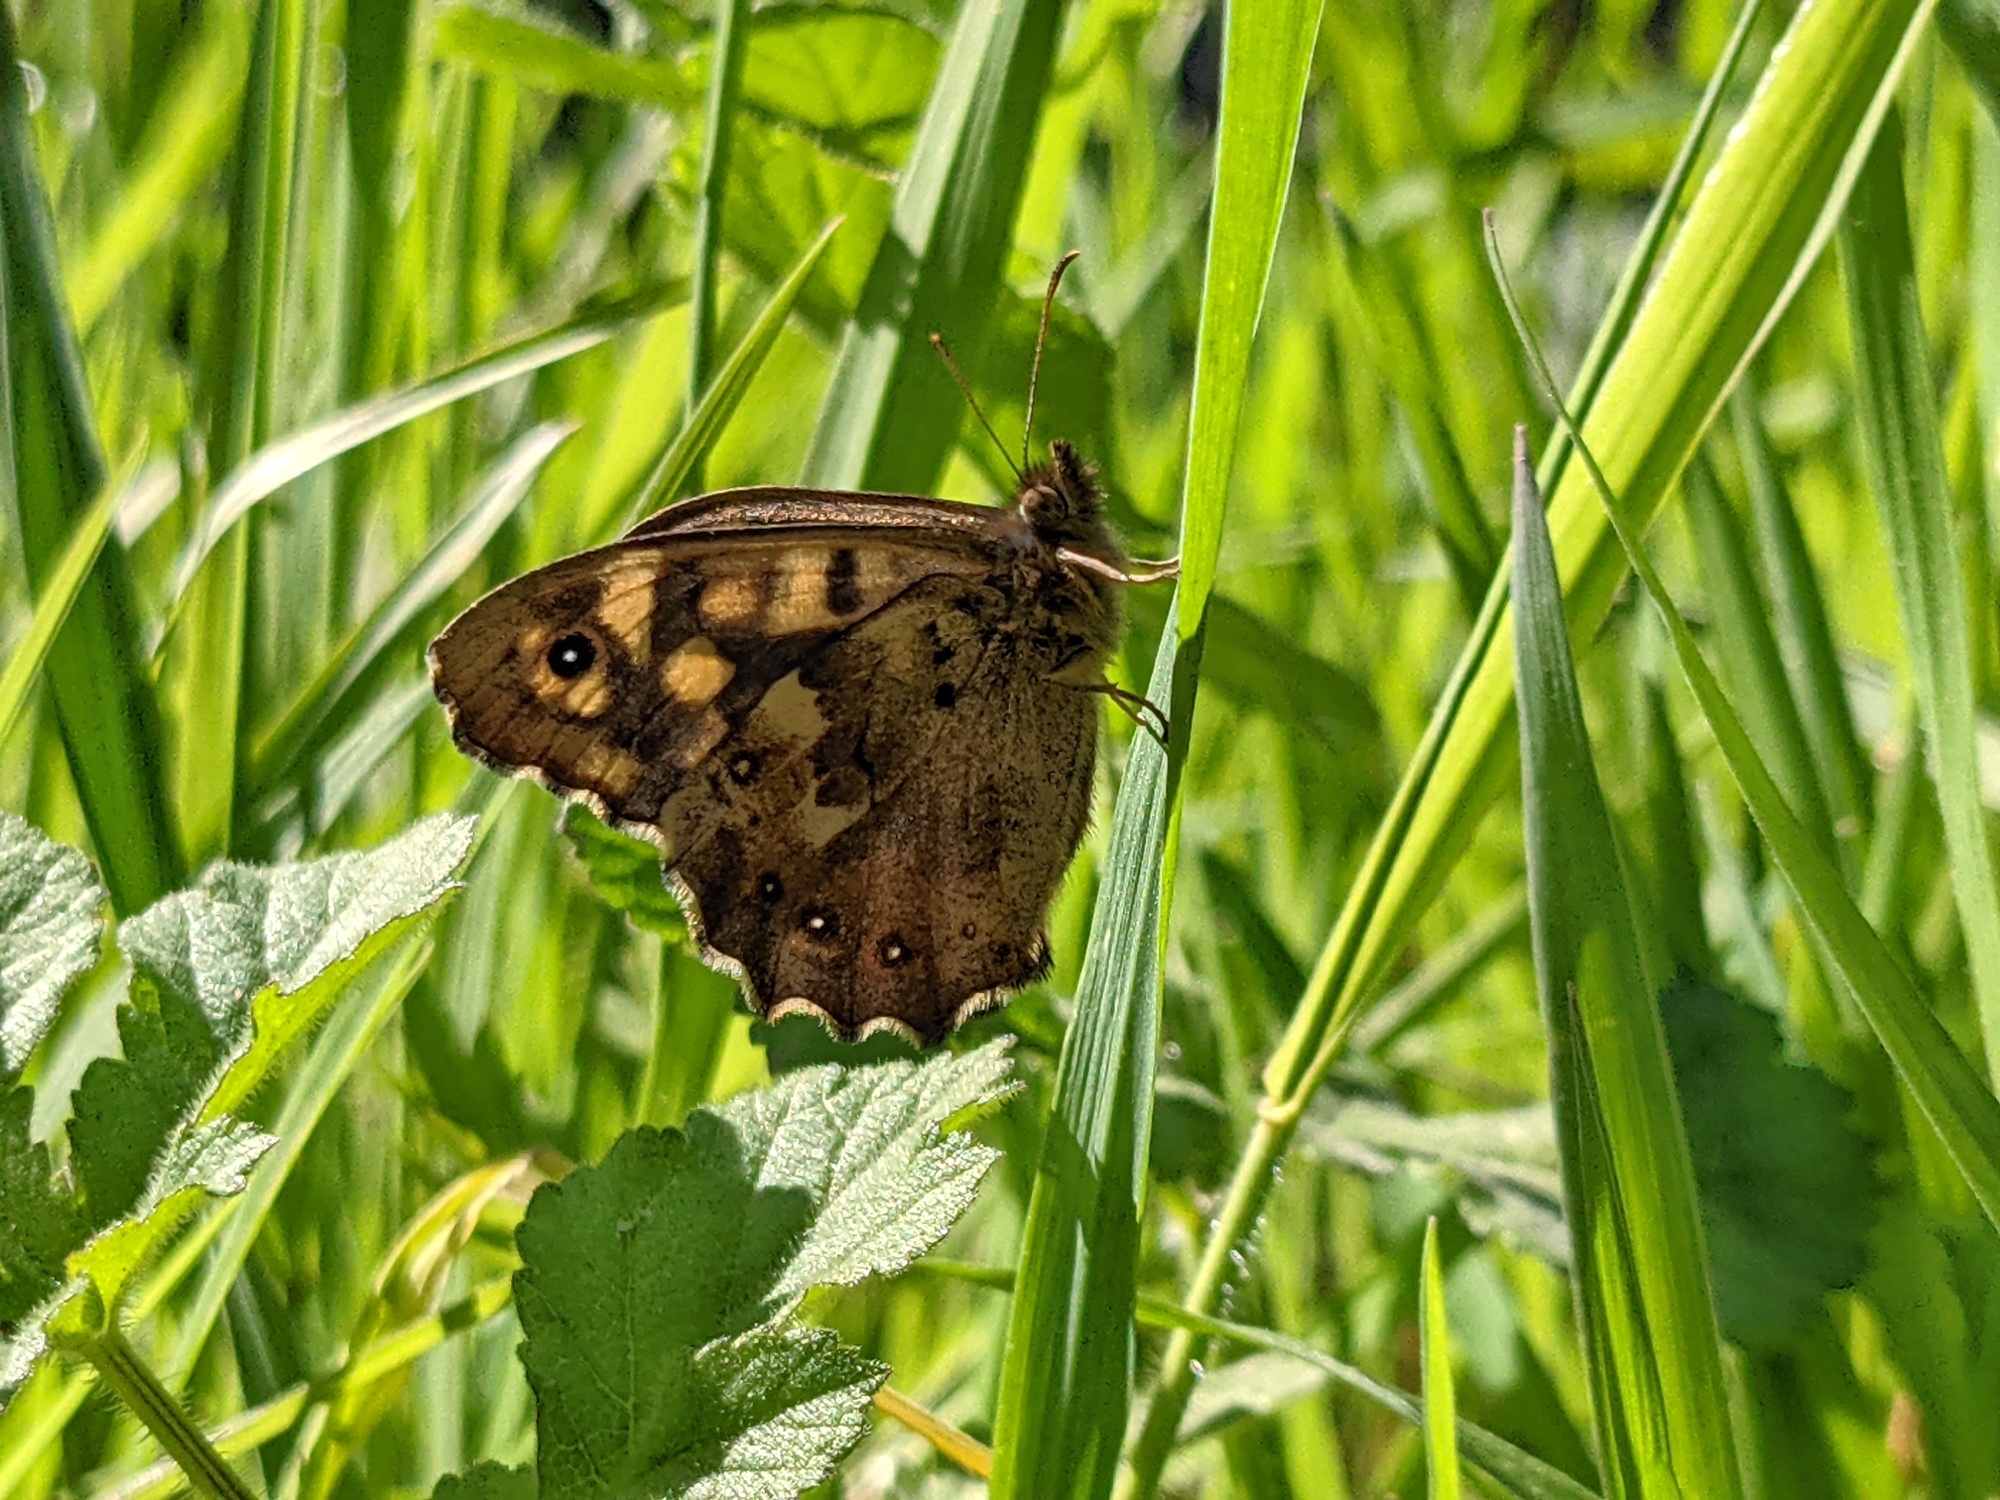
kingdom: Animalia
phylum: Arthropoda
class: Insecta
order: Lepidoptera
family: Nymphalidae
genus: Pararge
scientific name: Pararge aegeria
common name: Speckled wood
